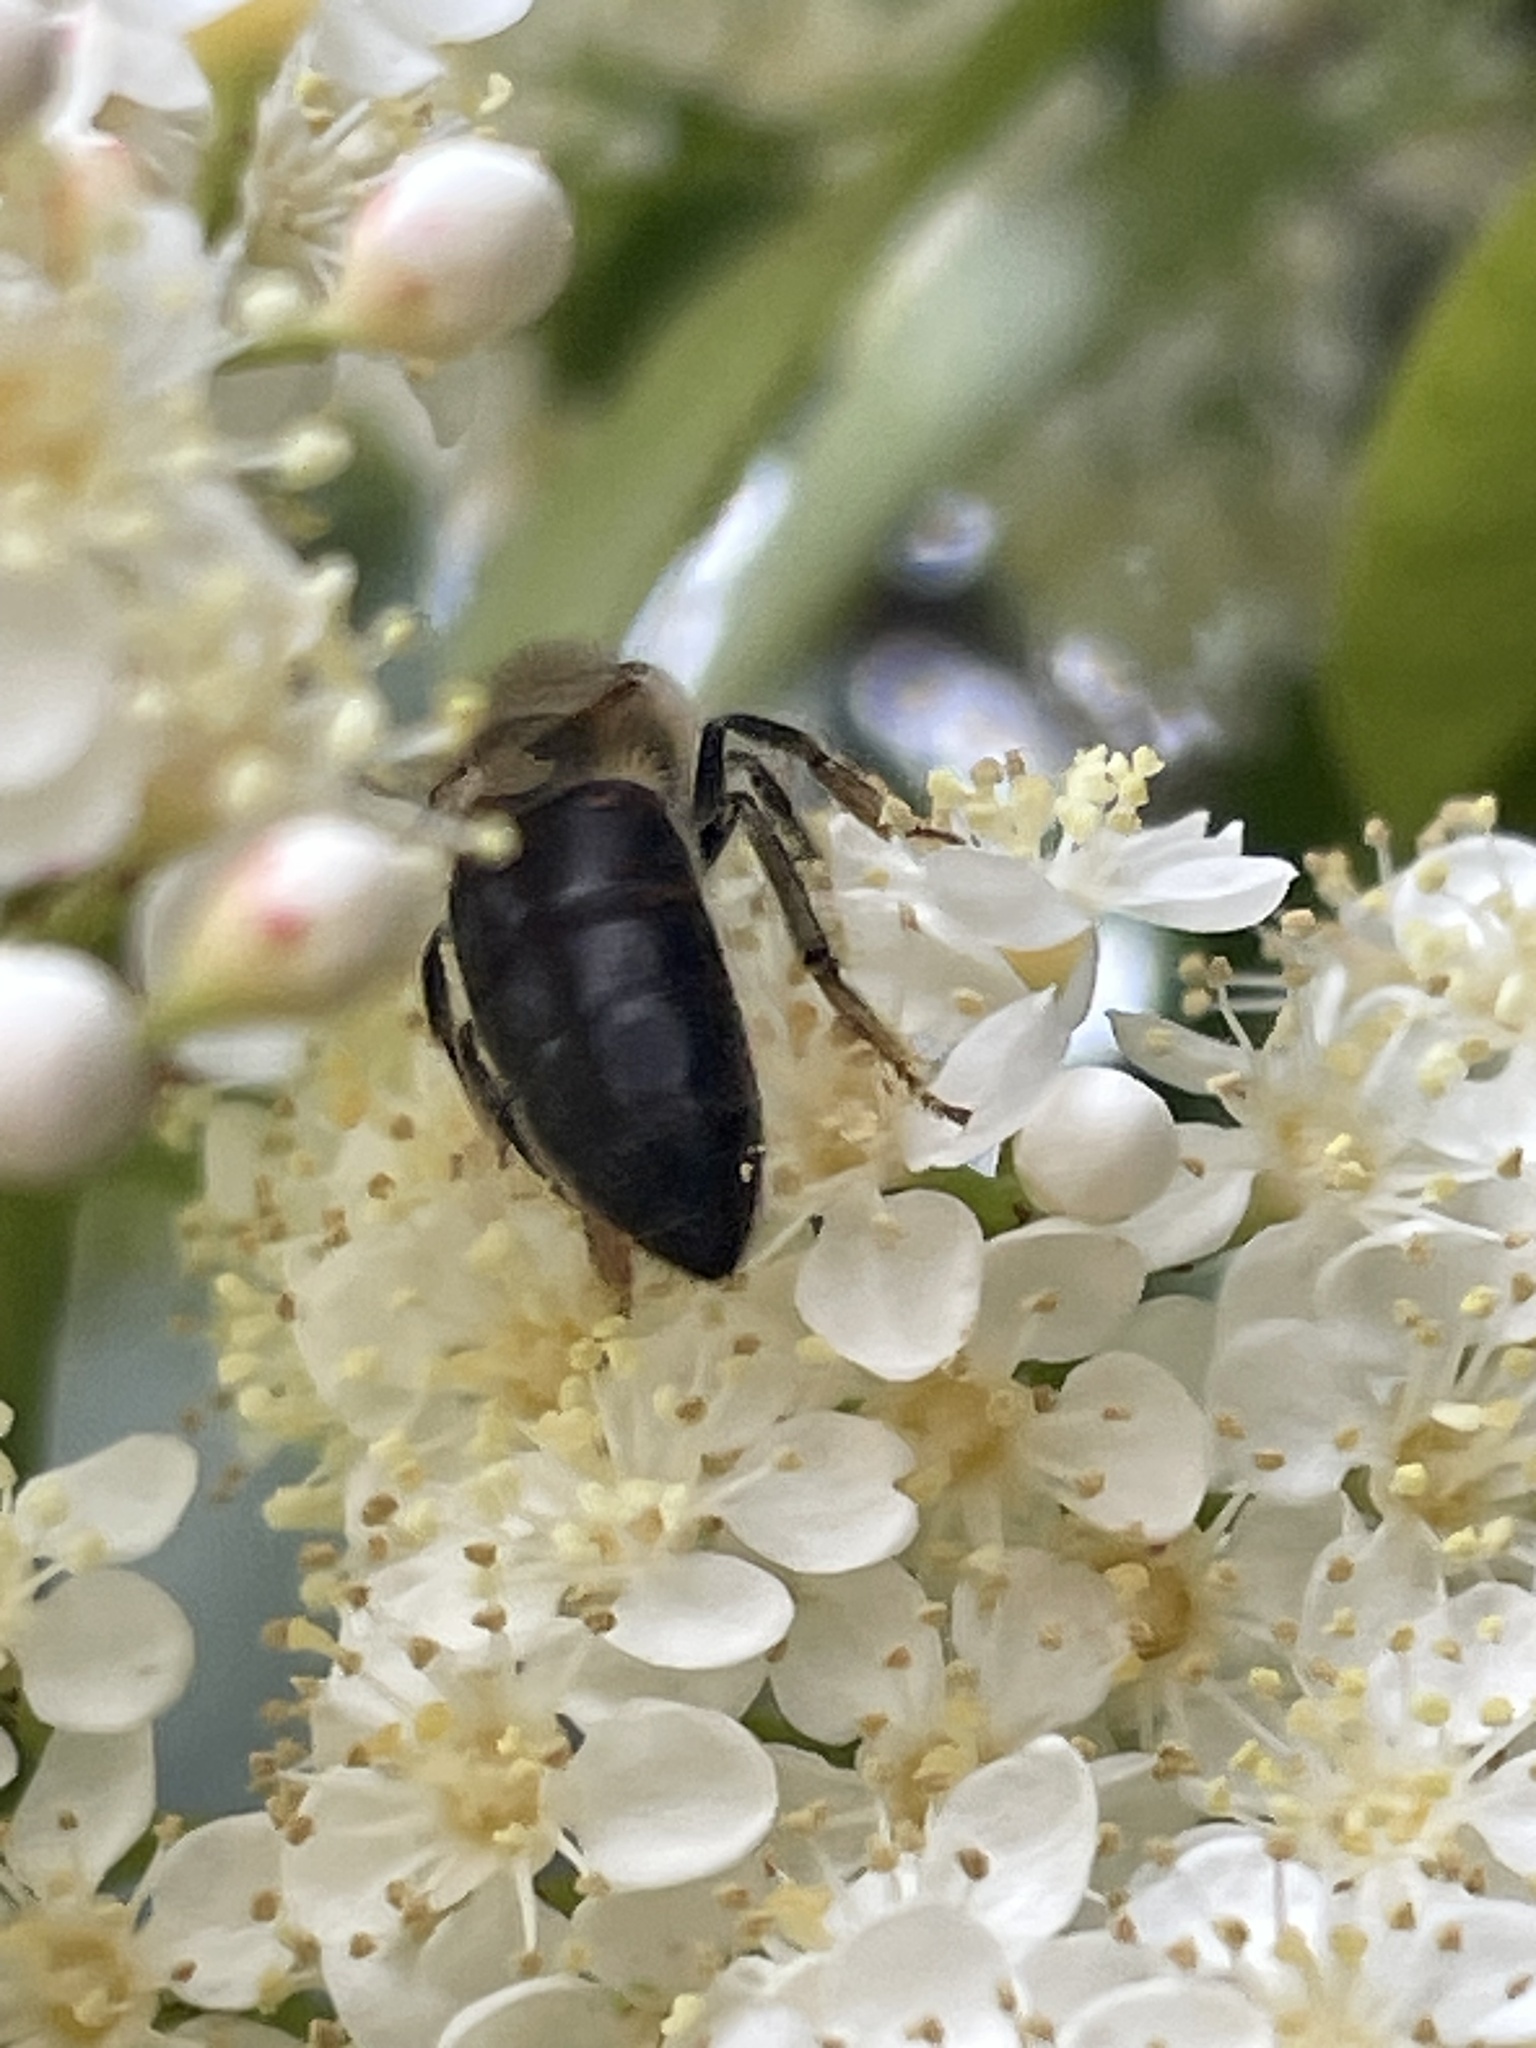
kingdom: Animalia
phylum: Arthropoda
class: Insecta
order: Hymenoptera
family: Apidae
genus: Apis
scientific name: Apis mellifera
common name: Honey bee
